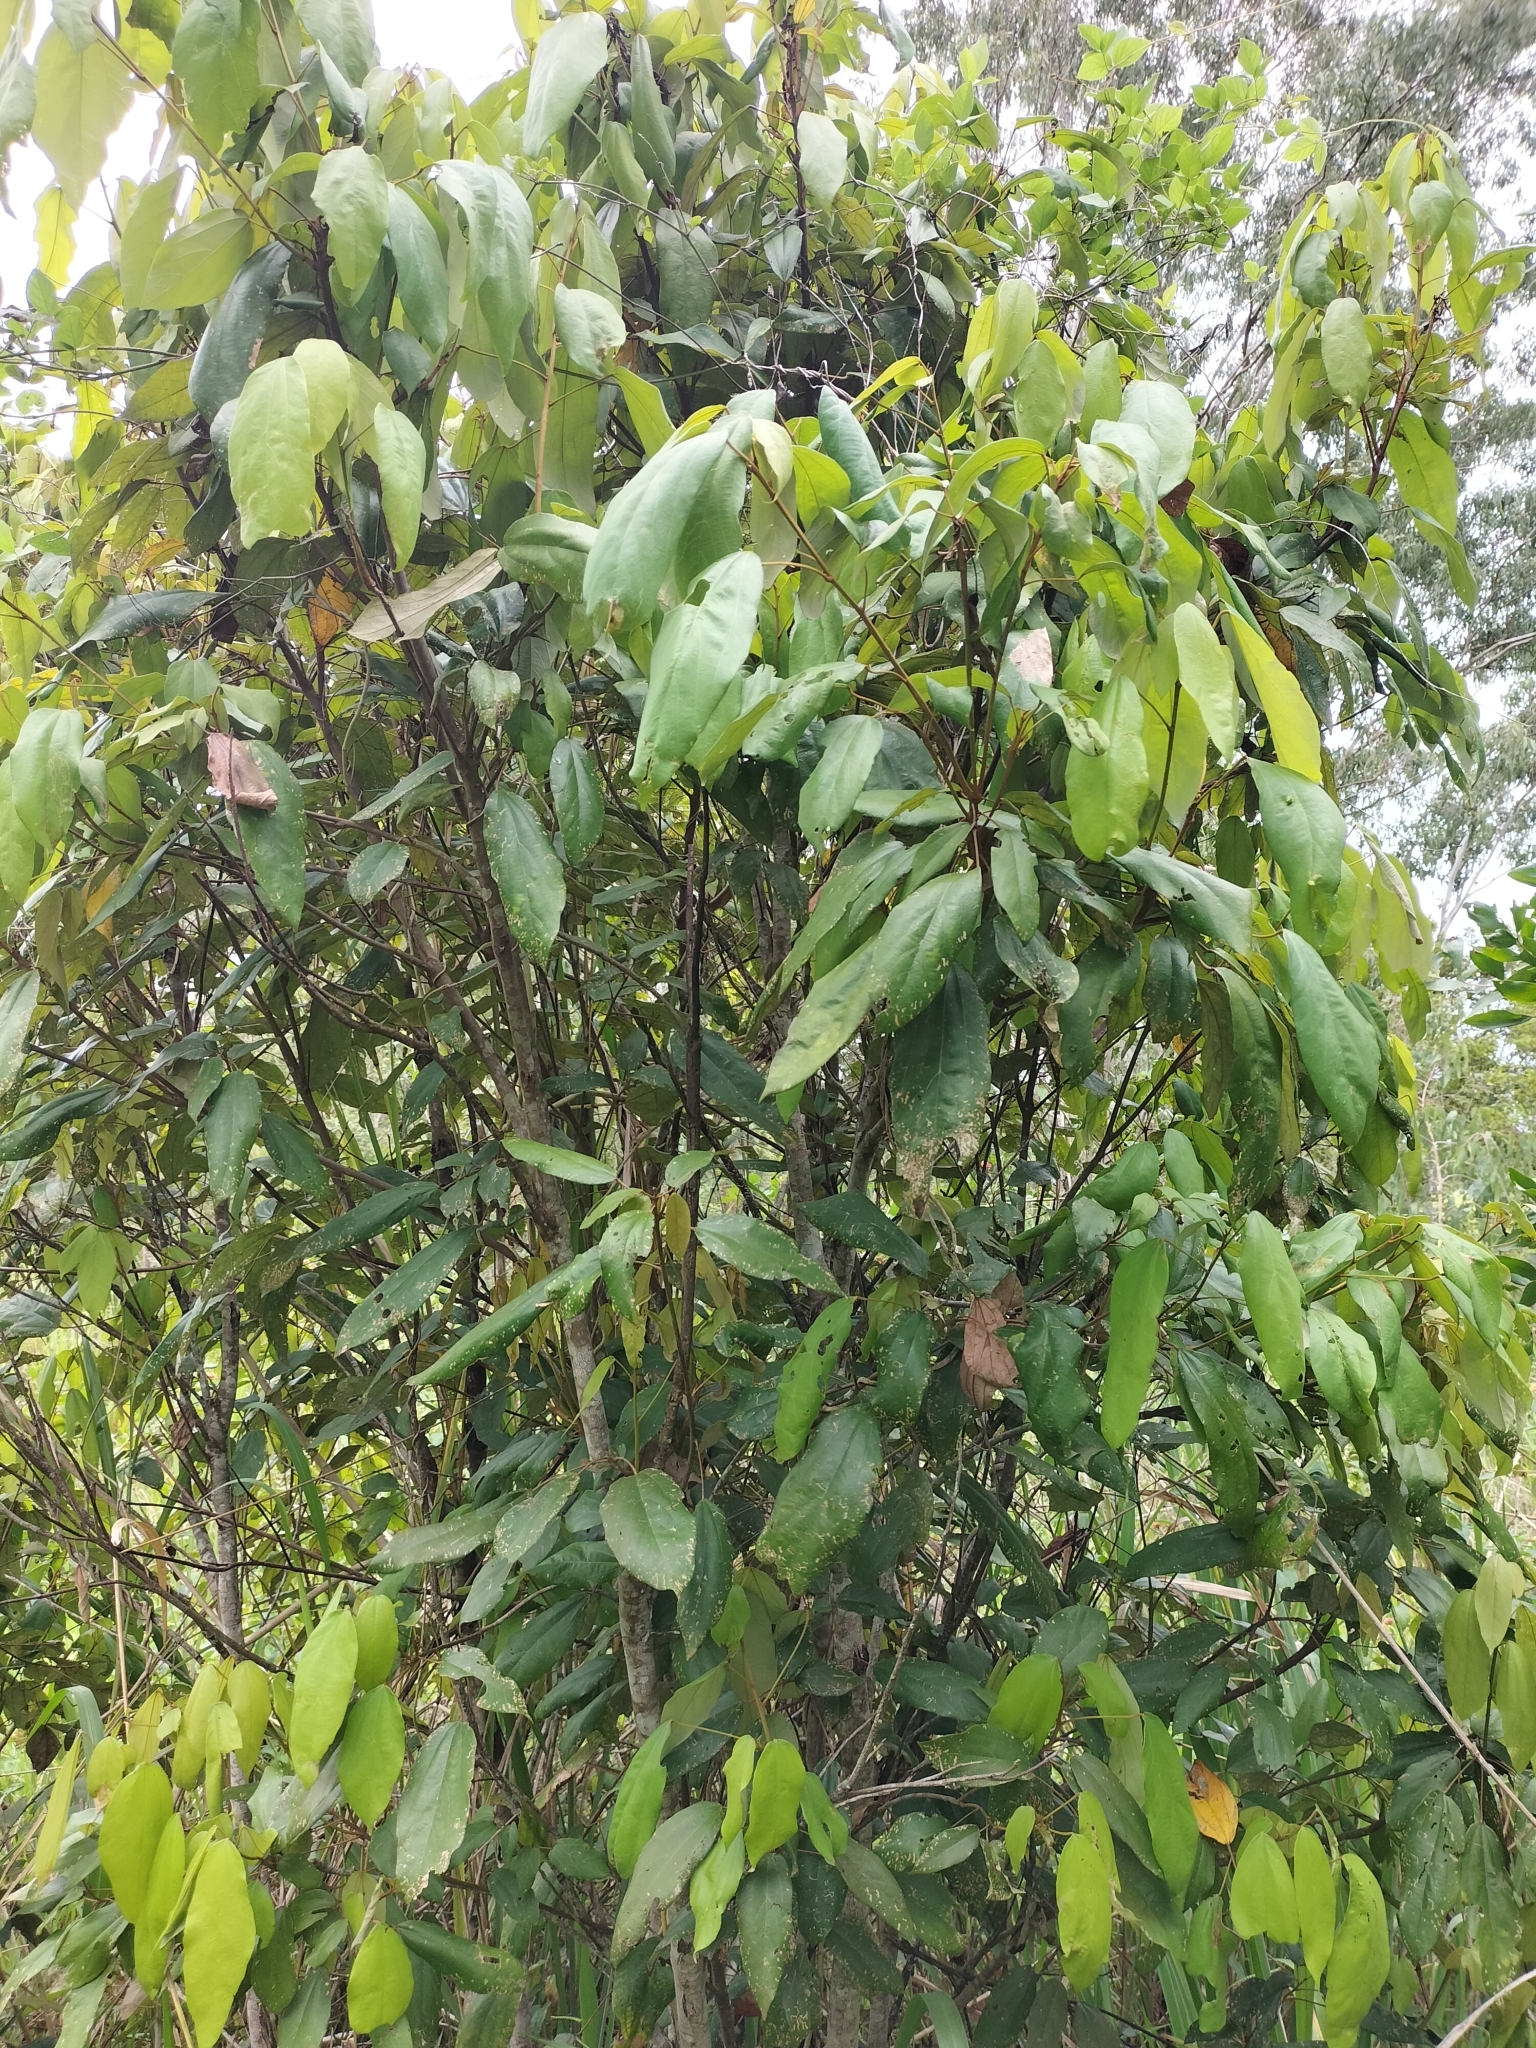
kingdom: Plantae
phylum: Tracheophyta
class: Magnoliopsida
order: Malpighiales
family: Euphorbiaceae
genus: Mallotus
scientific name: Mallotus philippensis
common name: Kamala tree
